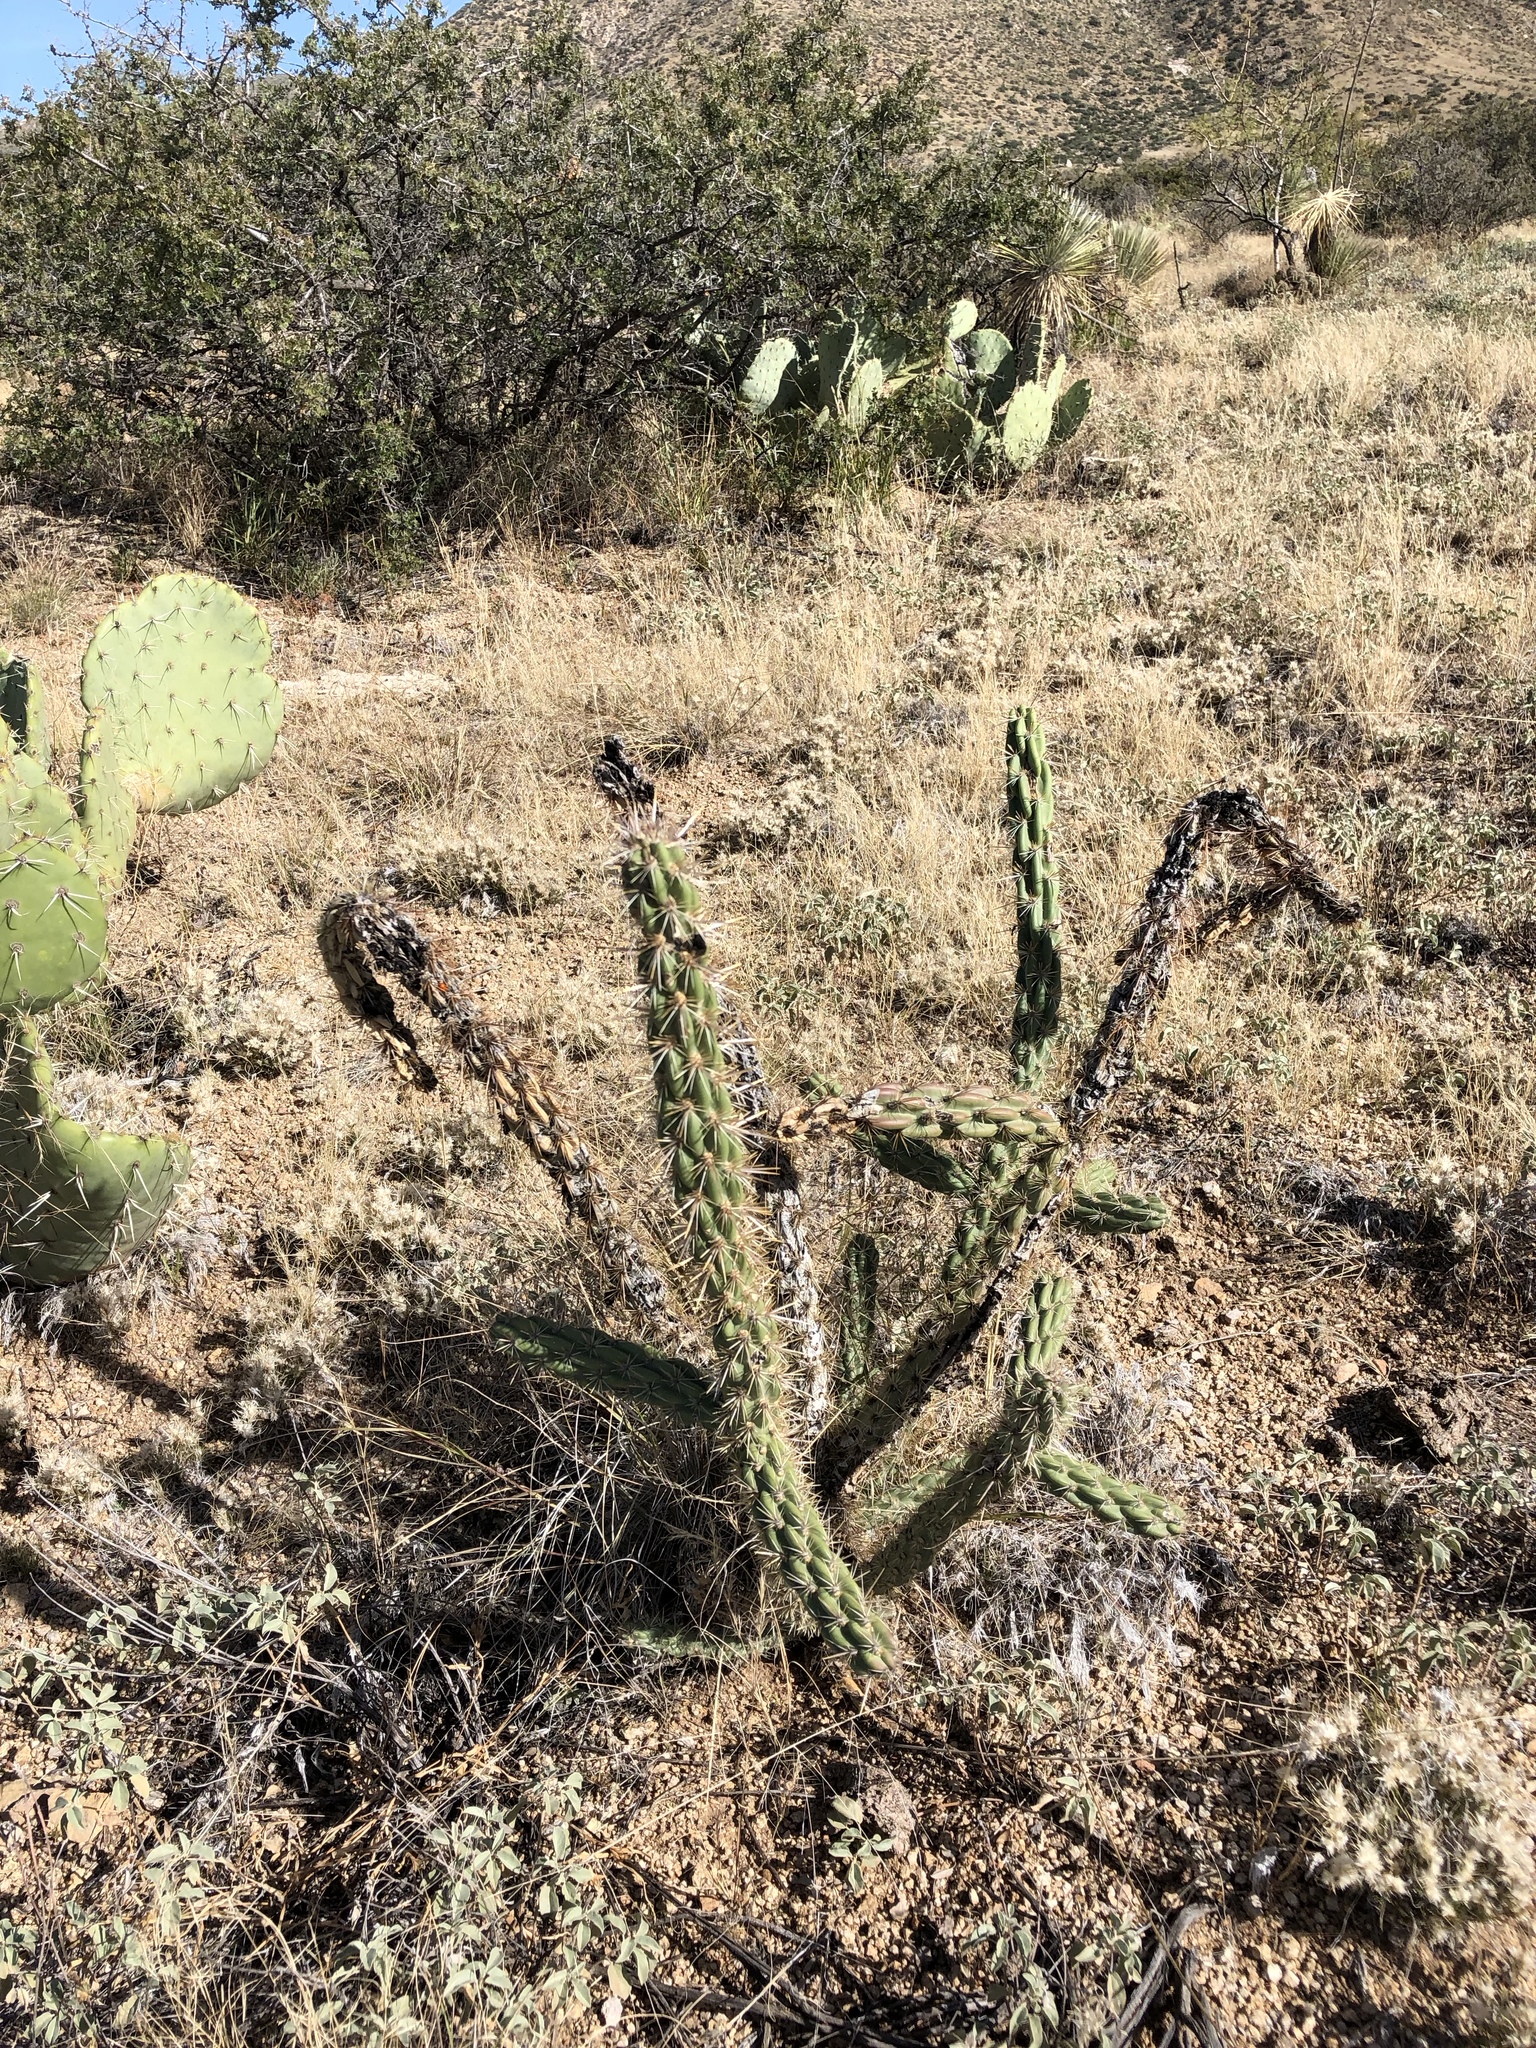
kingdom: Plantae
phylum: Tracheophyta
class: Magnoliopsida
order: Caryophyllales
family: Cactaceae
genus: Cylindropuntia
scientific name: Cylindropuntia imbricata
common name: Candelabrum cactus
